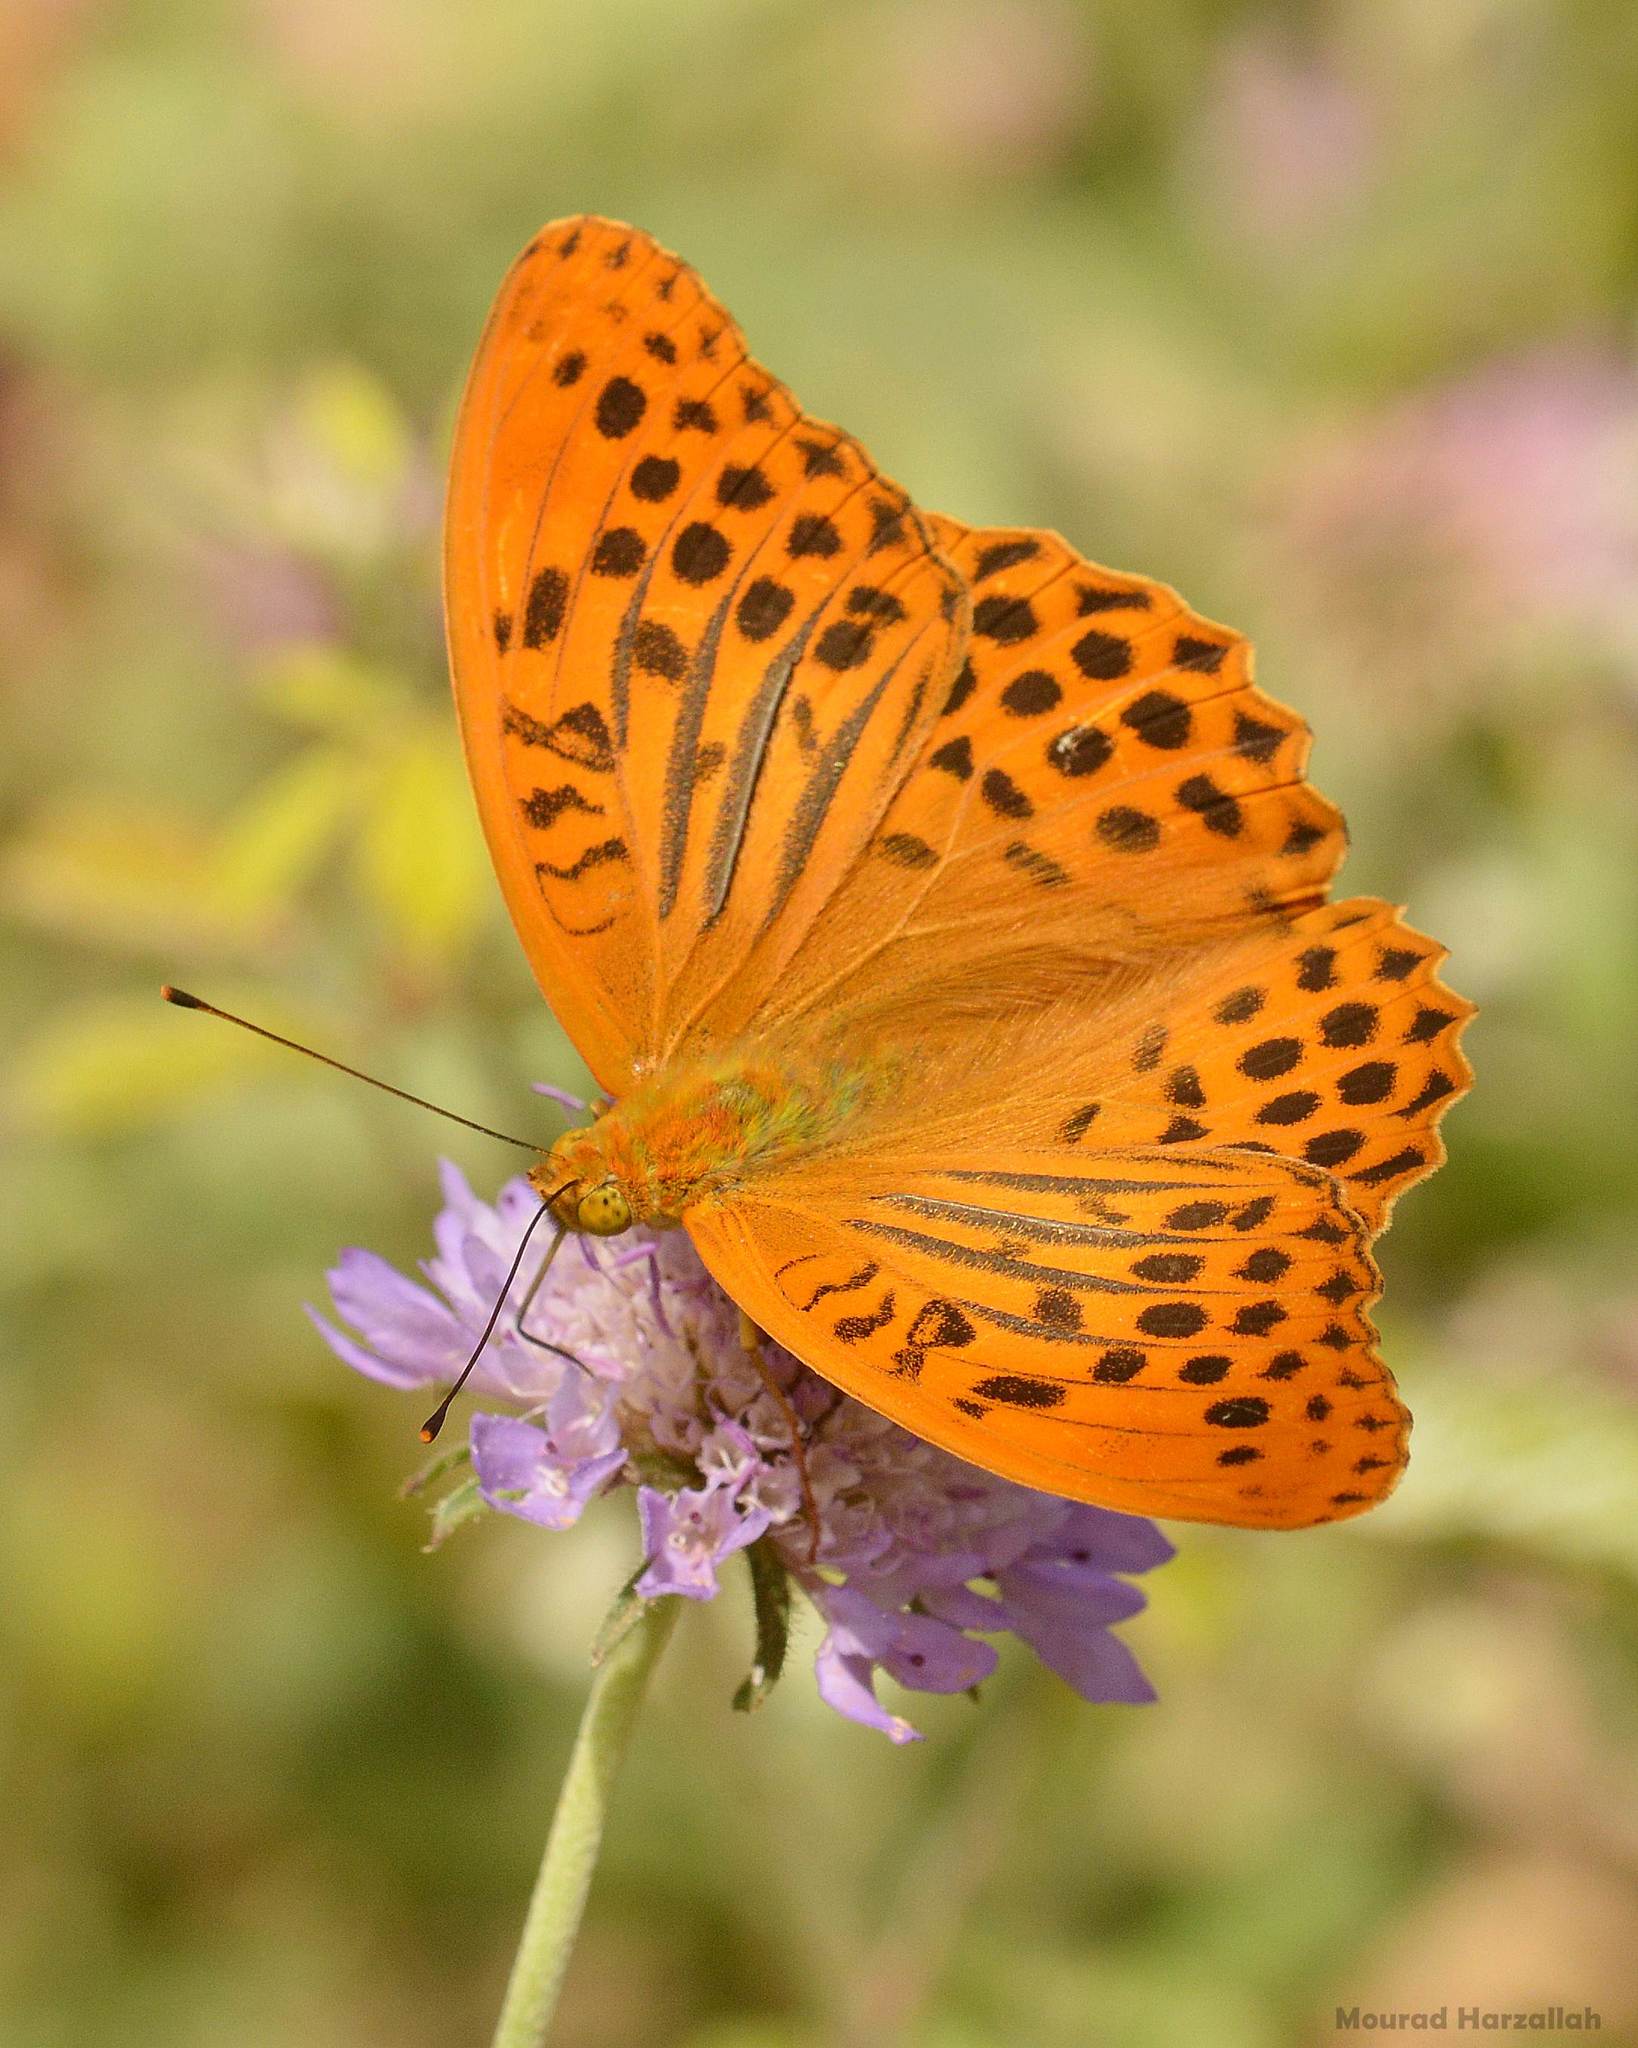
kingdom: Animalia
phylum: Arthropoda
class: Insecta
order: Lepidoptera
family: Nymphalidae
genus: Argynnis
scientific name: Argynnis paphia
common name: Silver-washed fritillary
